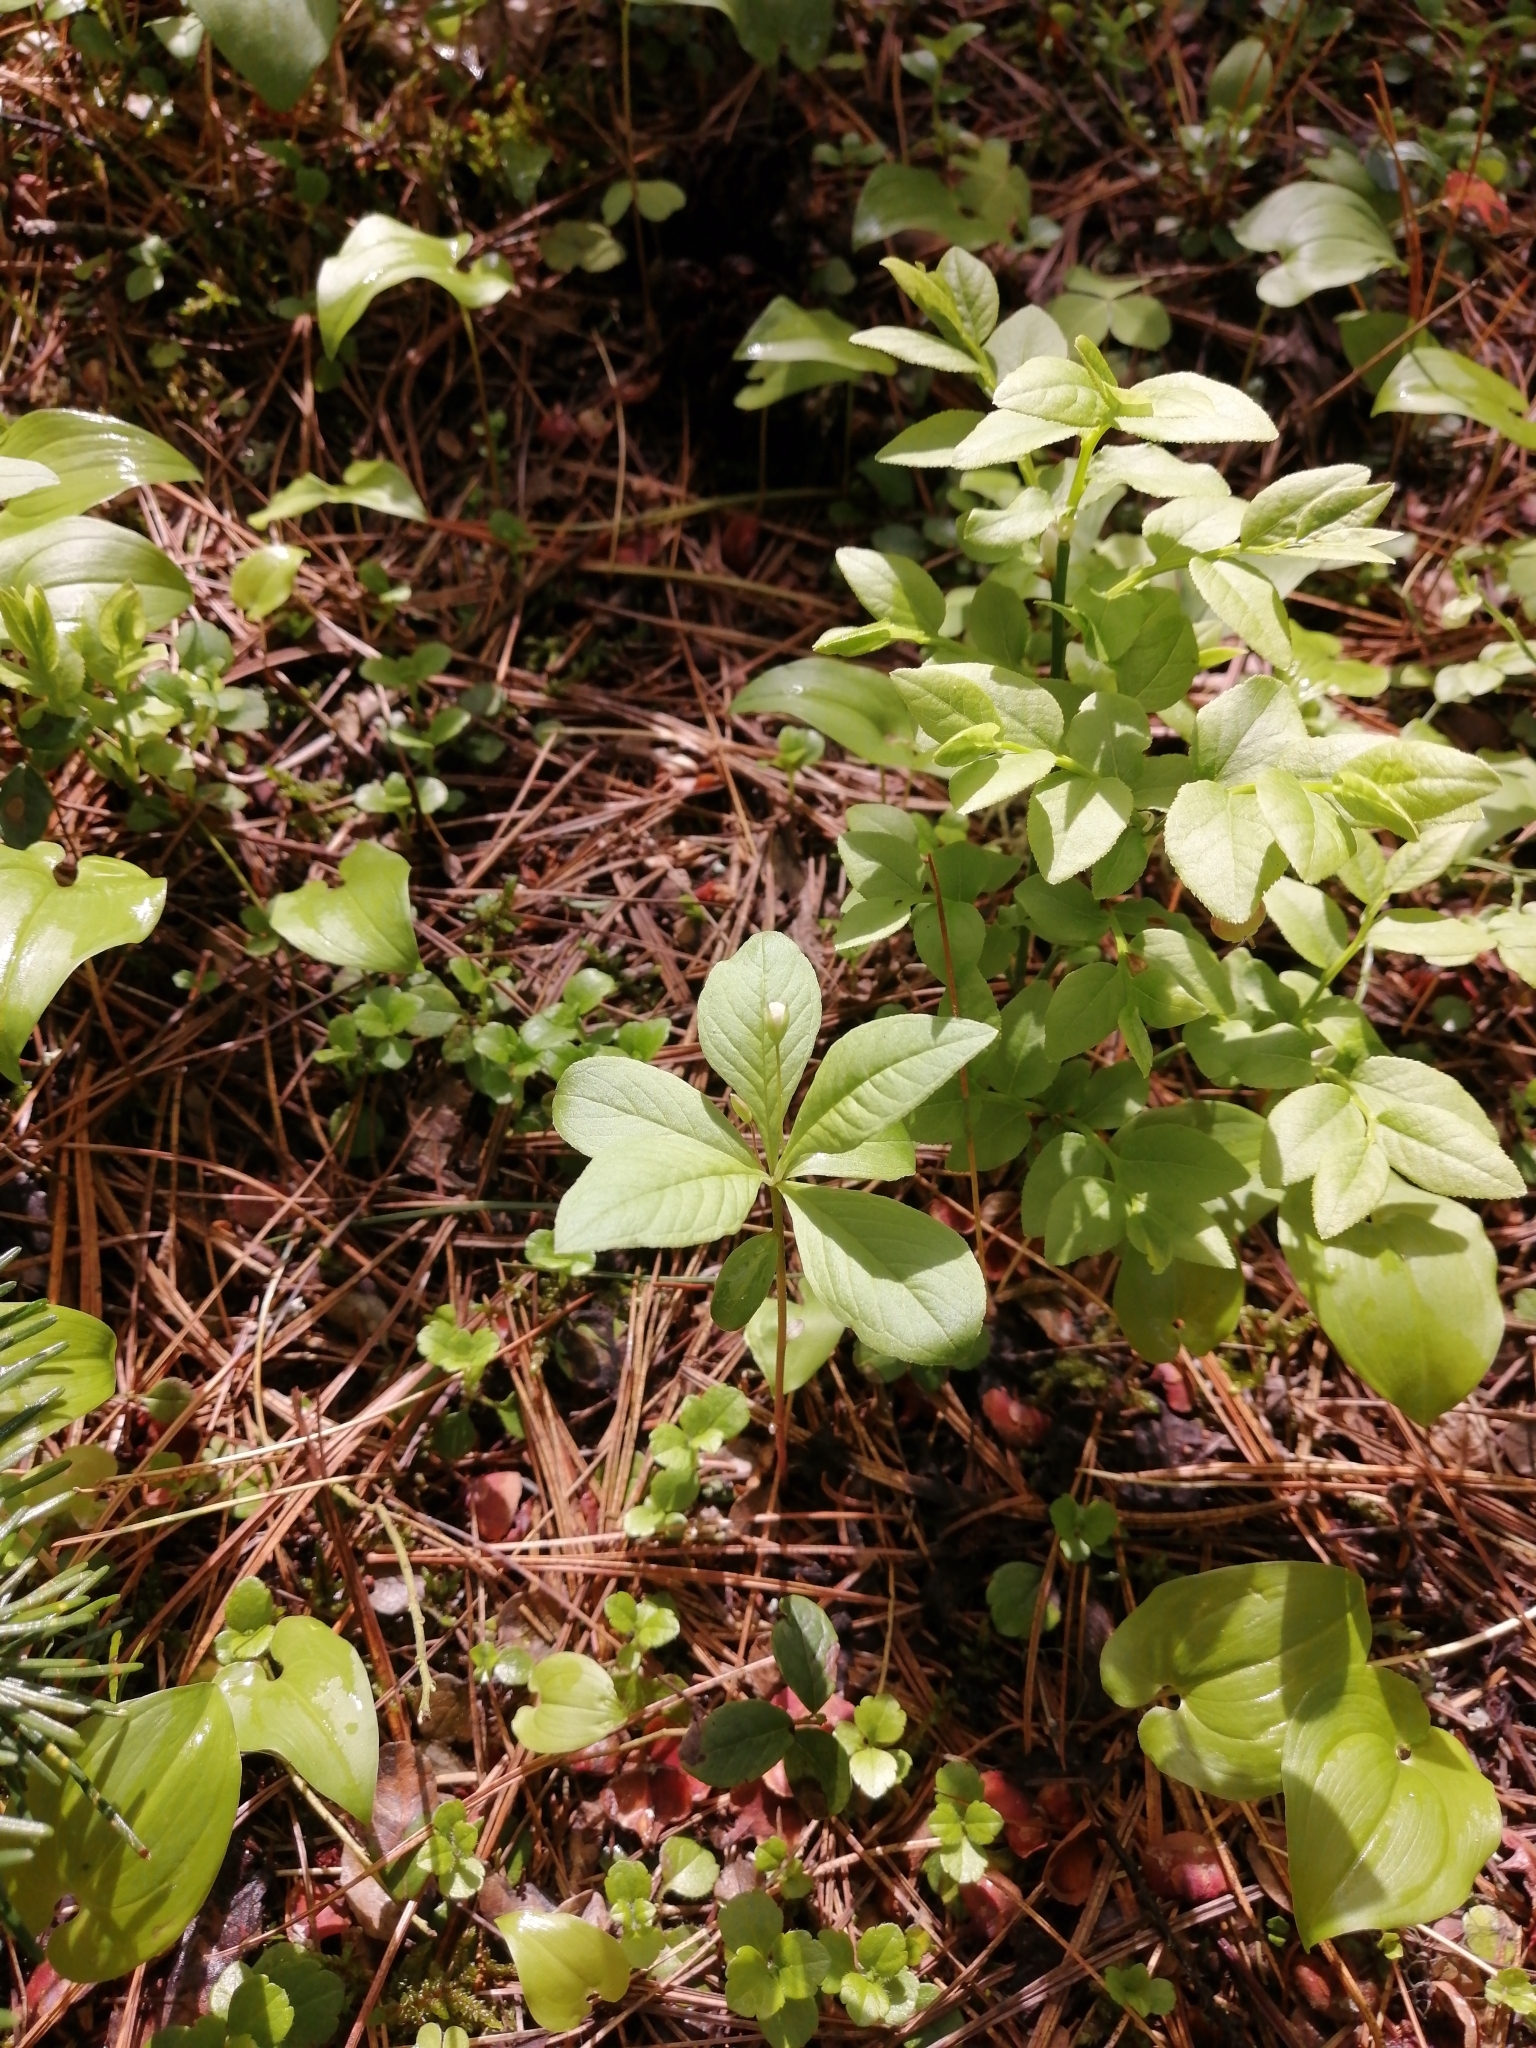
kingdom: Plantae
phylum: Tracheophyta
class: Magnoliopsida
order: Ericales
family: Primulaceae
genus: Lysimachia
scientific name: Lysimachia europaea
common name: Arctic starflower
